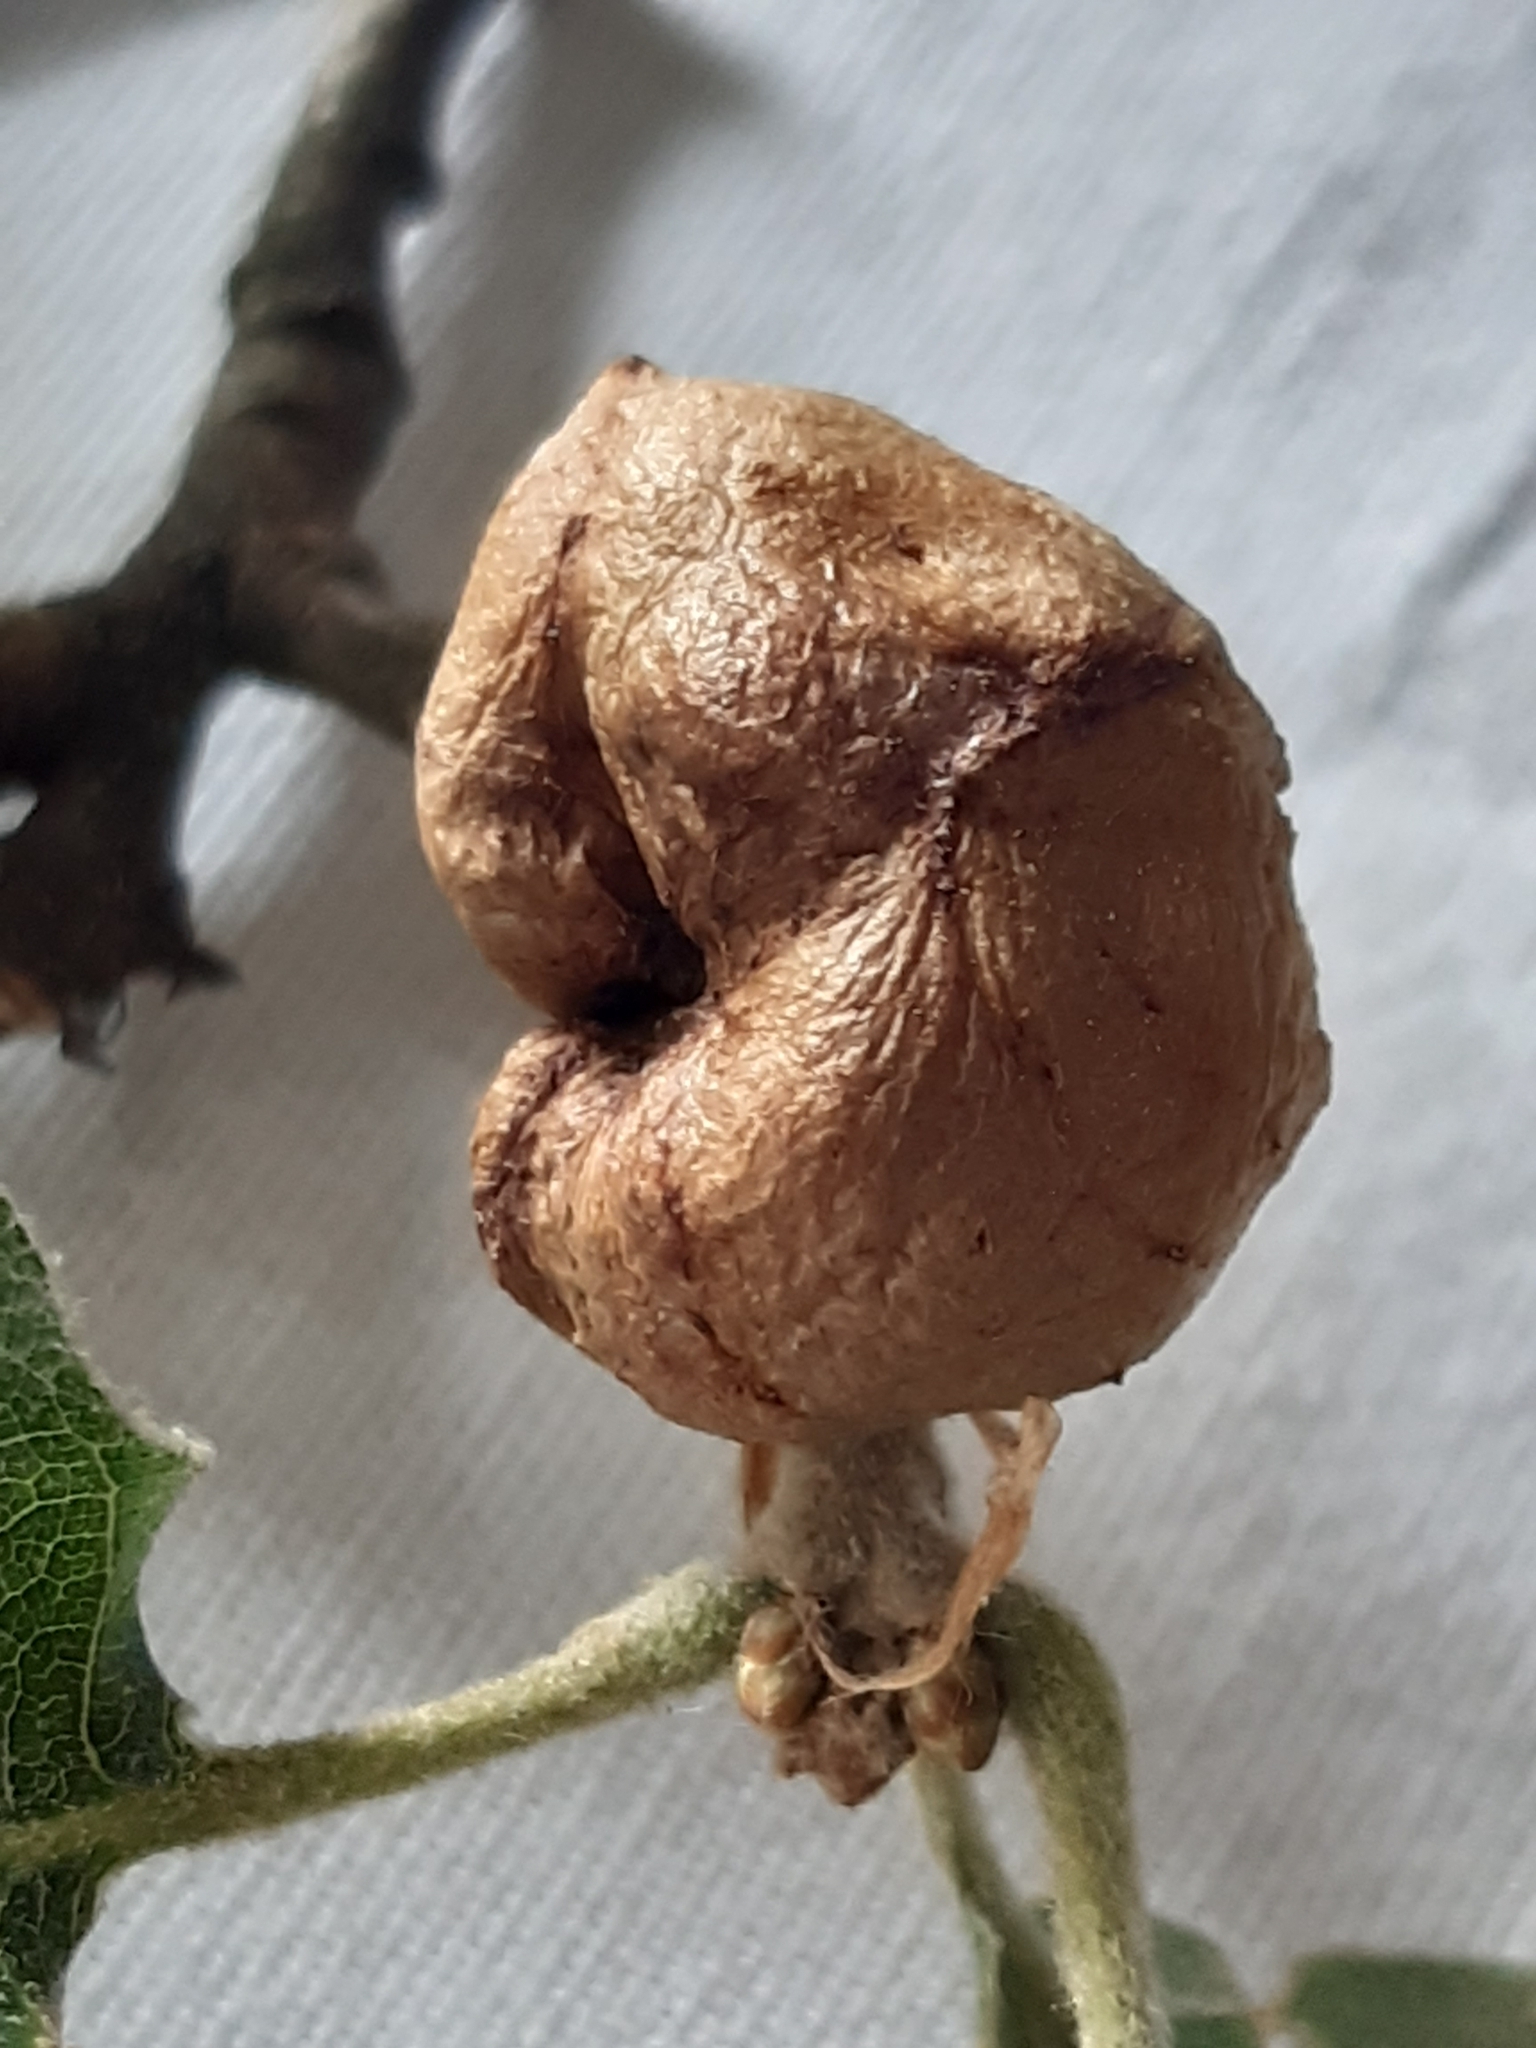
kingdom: Animalia
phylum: Arthropoda
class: Insecta
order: Hymenoptera
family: Cynipidae
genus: Biorhiza
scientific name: Biorhiza pallida
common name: Oak apple
